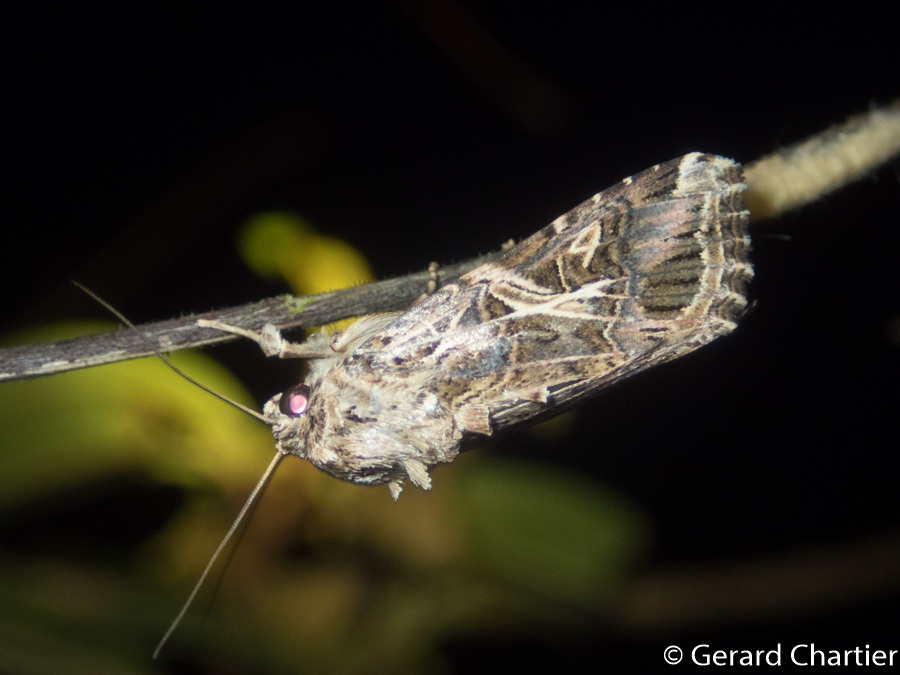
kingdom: Animalia
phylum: Arthropoda
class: Insecta
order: Lepidoptera
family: Noctuidae
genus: Spodoptera
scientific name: Spodoptera litura
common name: Asian cotton leafworm
